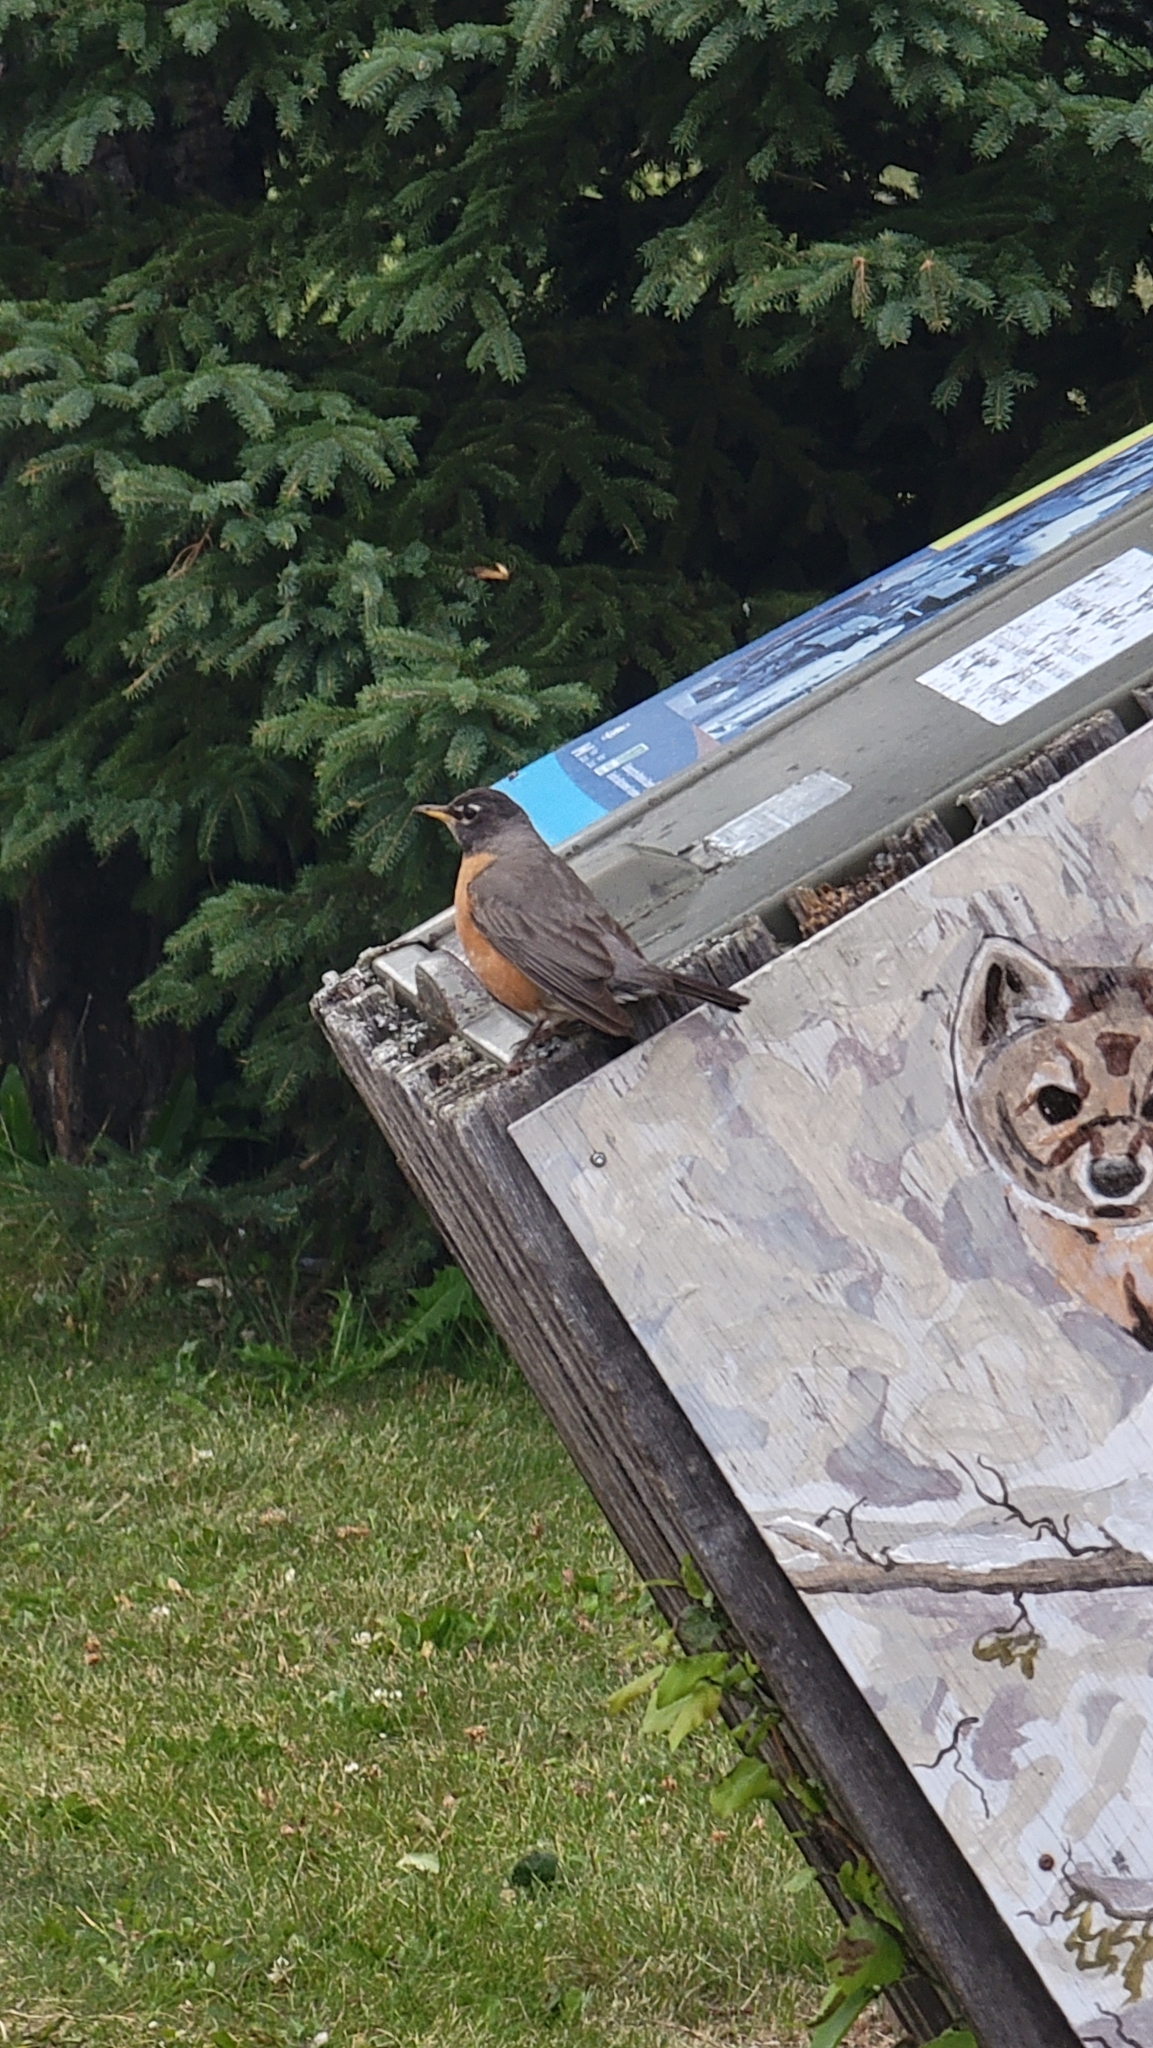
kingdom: Animalia
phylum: Chordata
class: Aves
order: Passeriformes
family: Turdidae
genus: Turdus
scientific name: Turdus migratorius
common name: American robin
